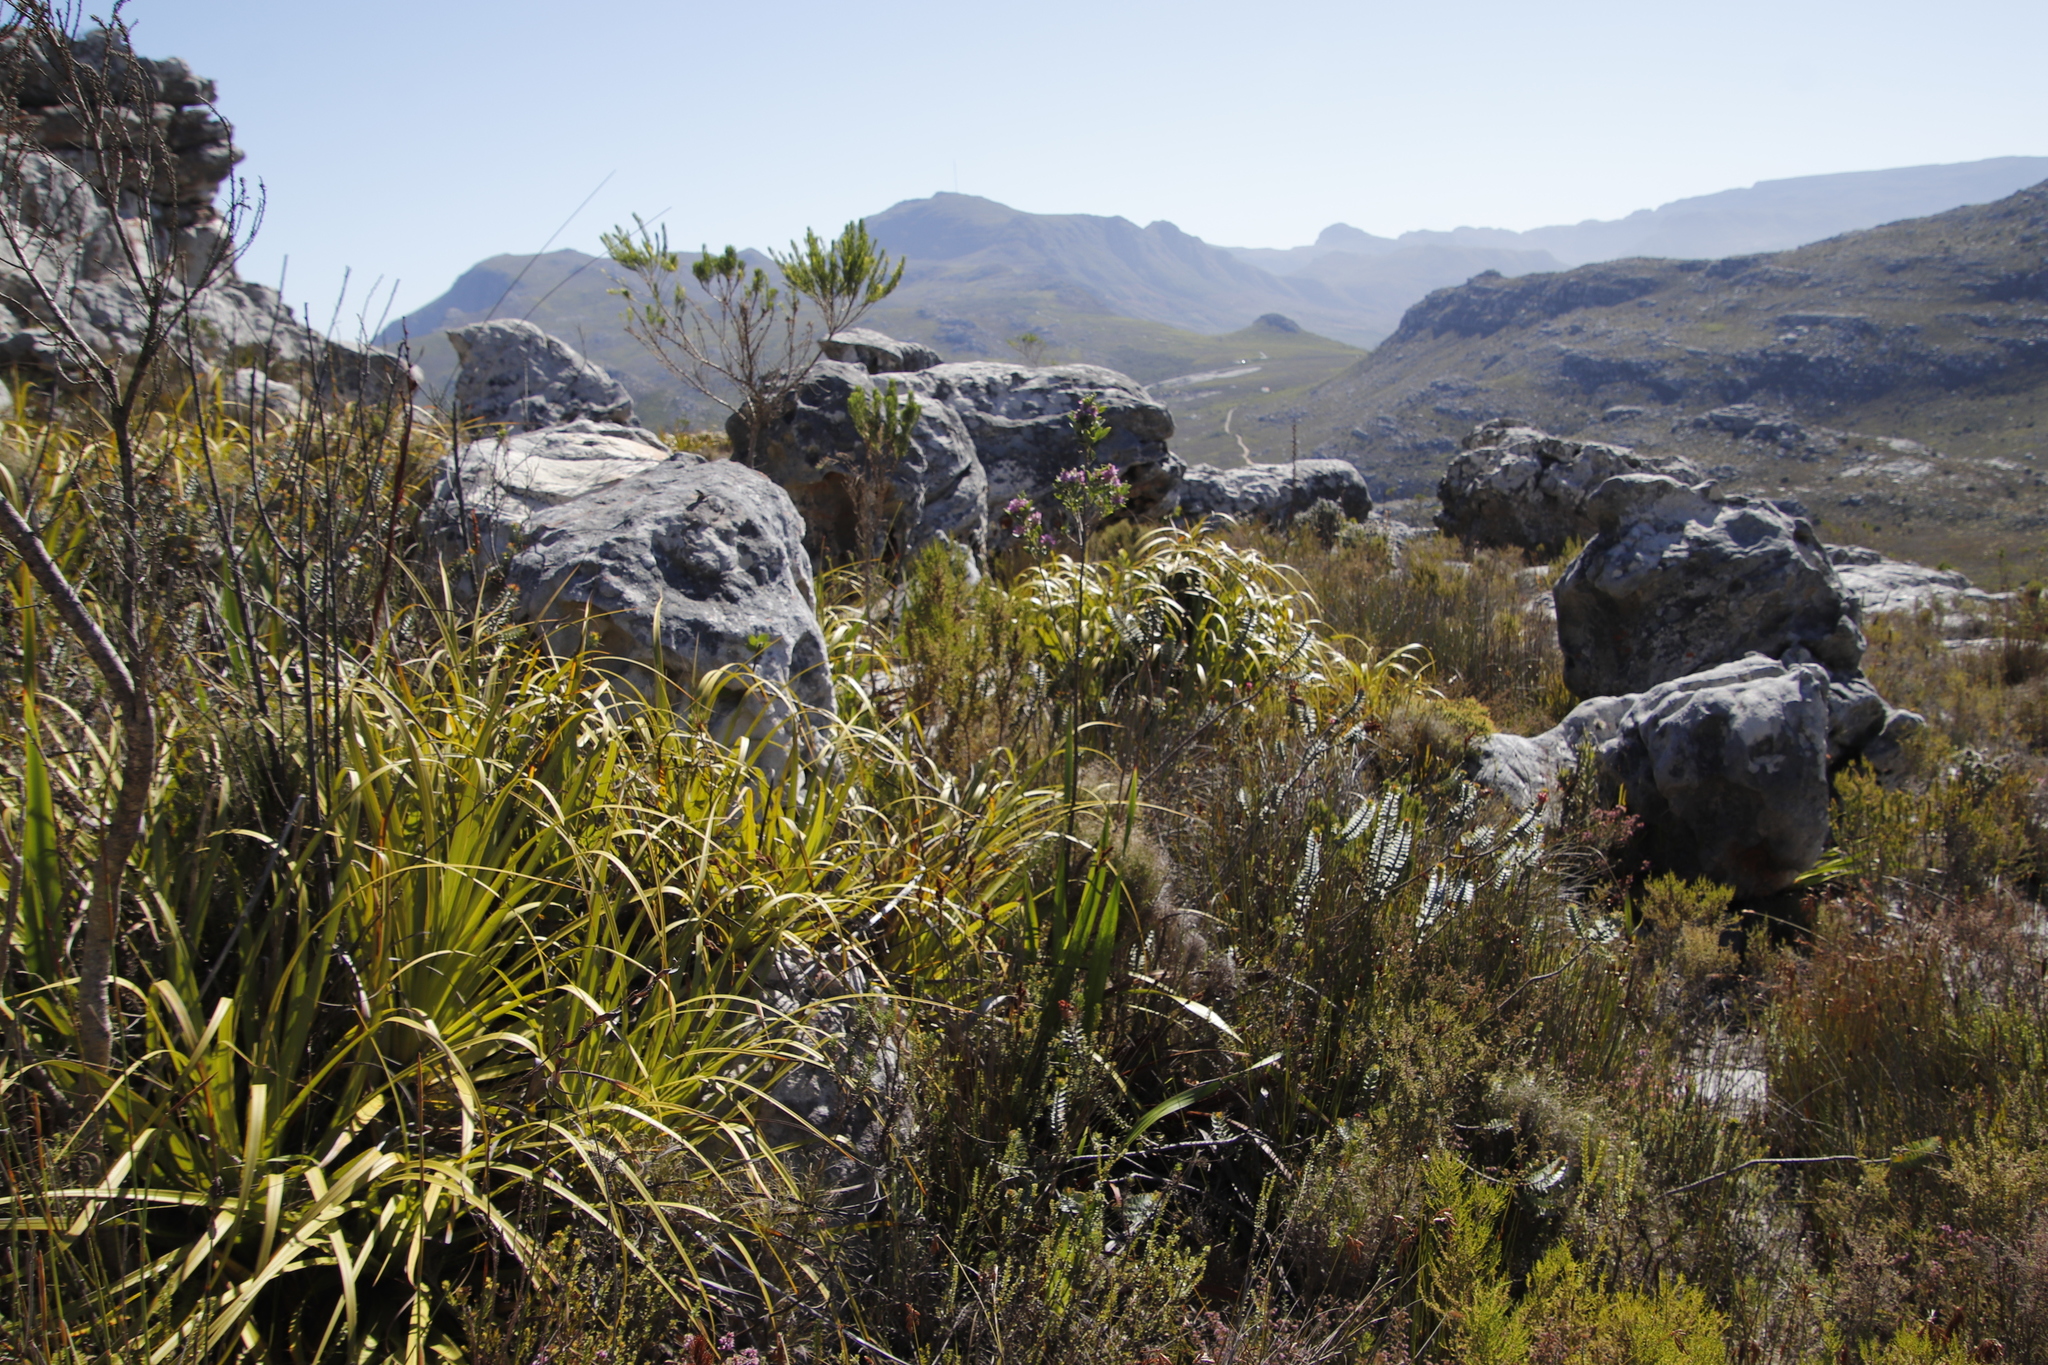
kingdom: Plantae
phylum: Tracheophyta
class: Magnoliopsida
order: Fabales
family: Fabaceae
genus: Indigofera
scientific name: Indigofera cytisoides
